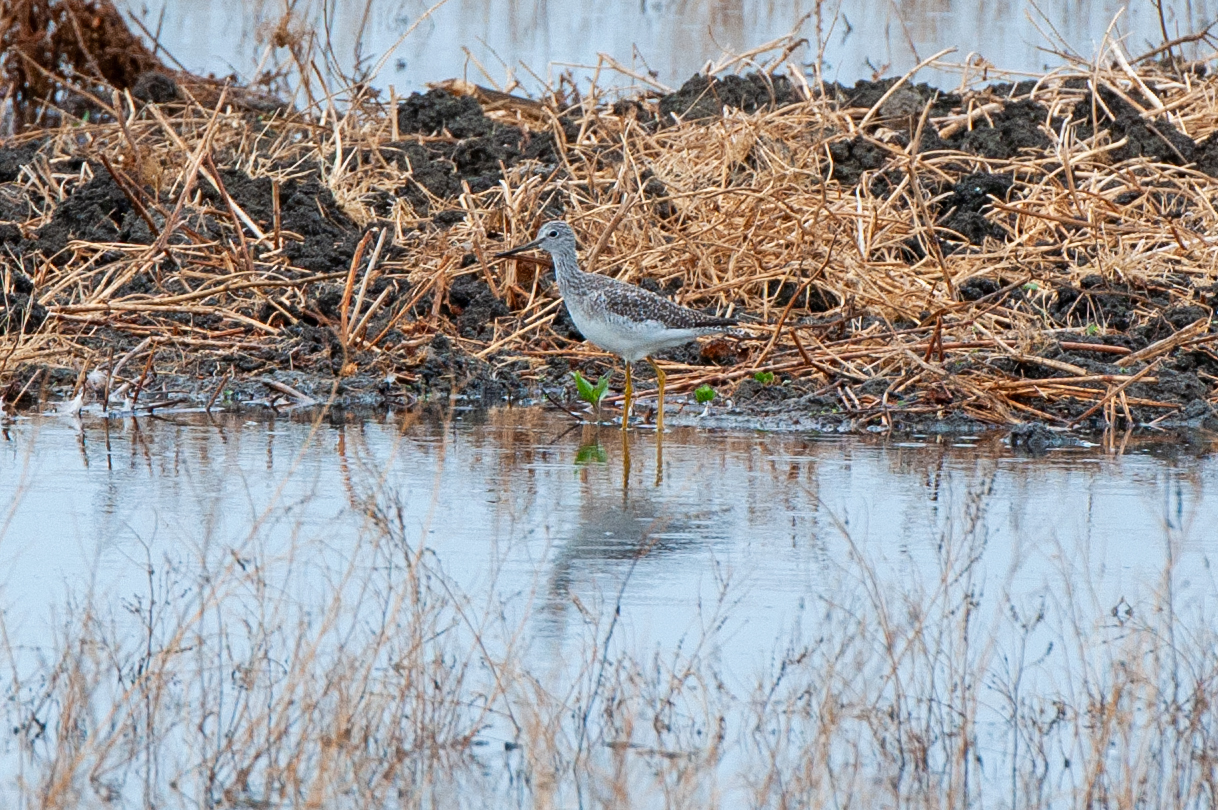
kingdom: Animalia
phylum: Chordata
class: Aves
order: Charadriiformes
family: Scolopacidae
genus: Tringa
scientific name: Tringa melanoleuca
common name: Greater yellowlegs
